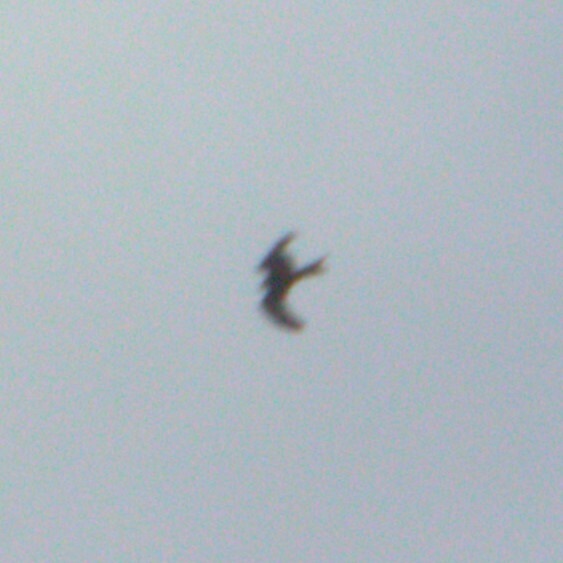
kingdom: Animalia
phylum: Chordata
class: Aves
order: Accipitriformes
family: Accipitridae
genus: Milvus
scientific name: Milvus milvus
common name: Red kite
